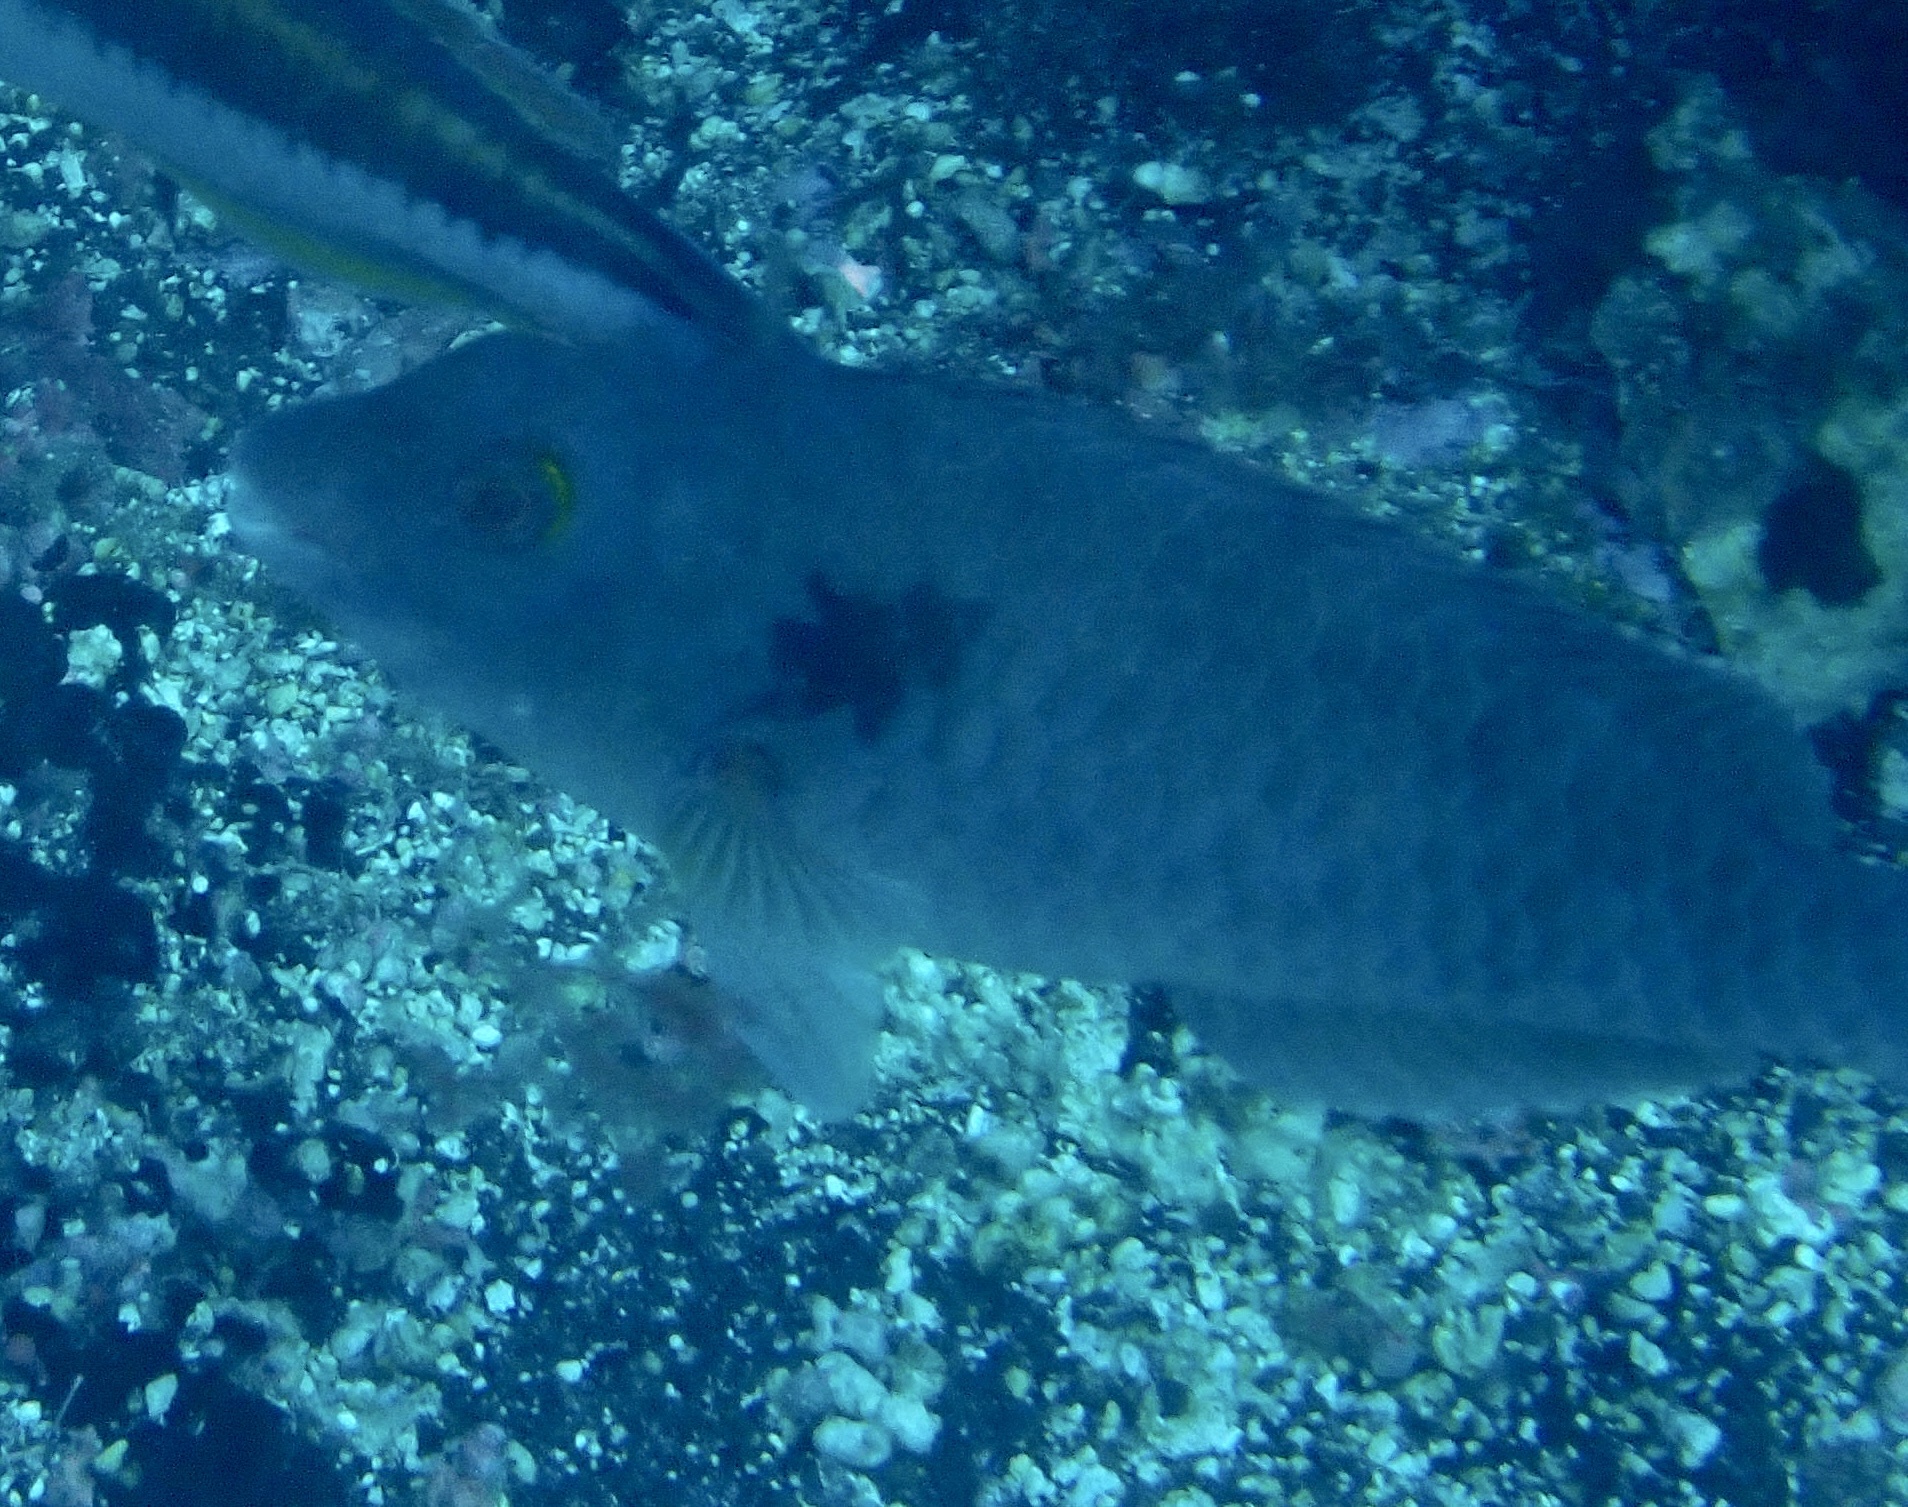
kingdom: Animalia
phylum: Chordata
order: Perciformes
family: Scaridae
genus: Sparisoma
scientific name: Sparisoma cretense
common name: Parrotfish
